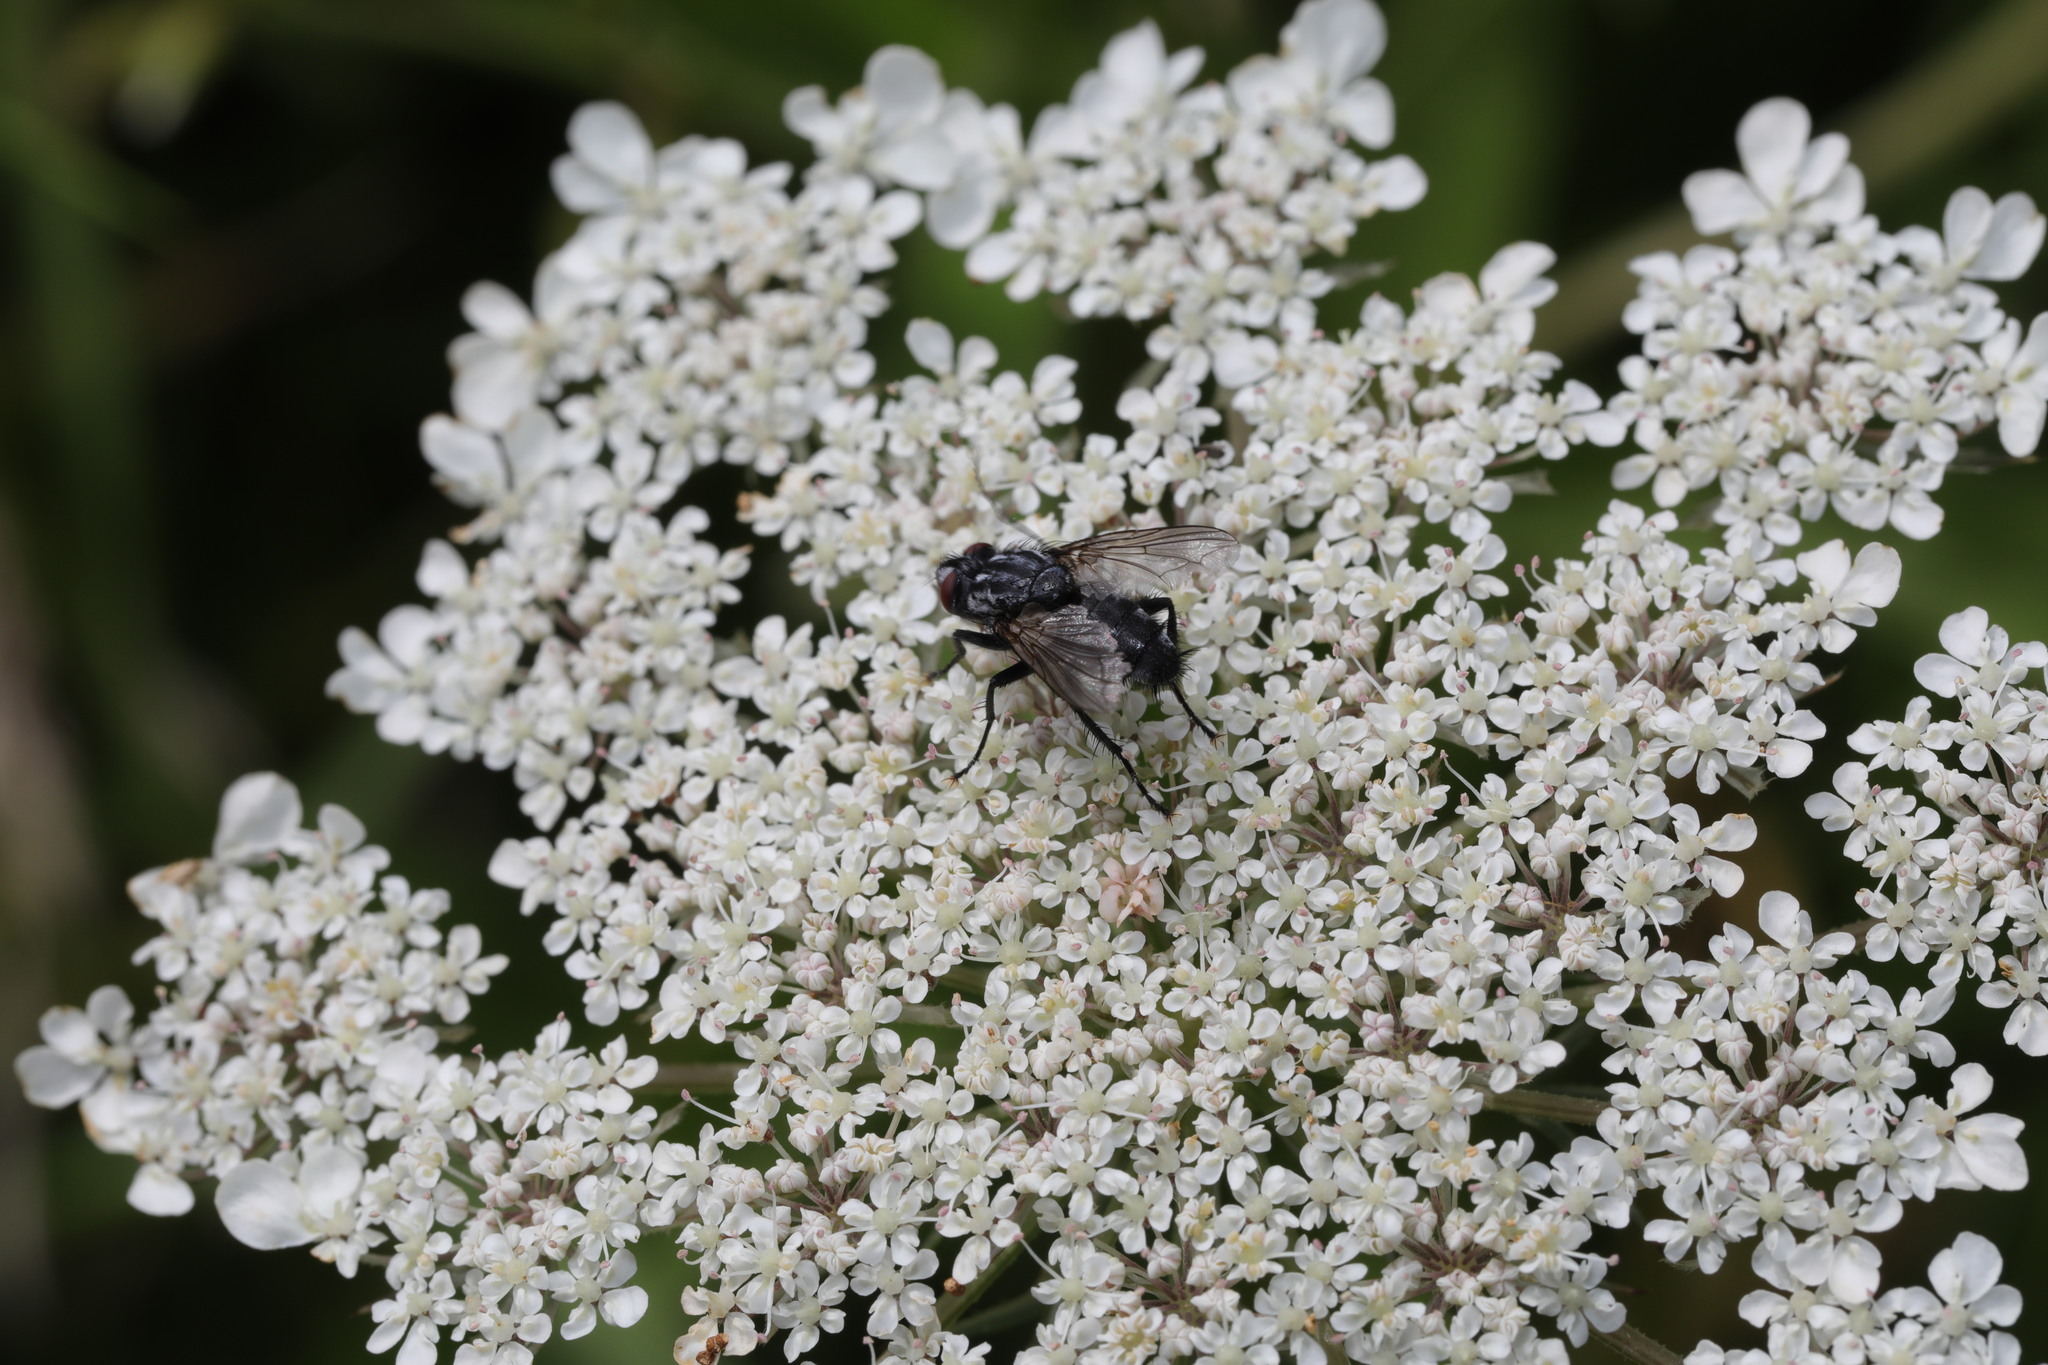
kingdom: Animalia
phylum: Arthropoda
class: Insecta
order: Diptera
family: Sarcophagidae
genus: Brachicoma
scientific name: Brachicoma devia
